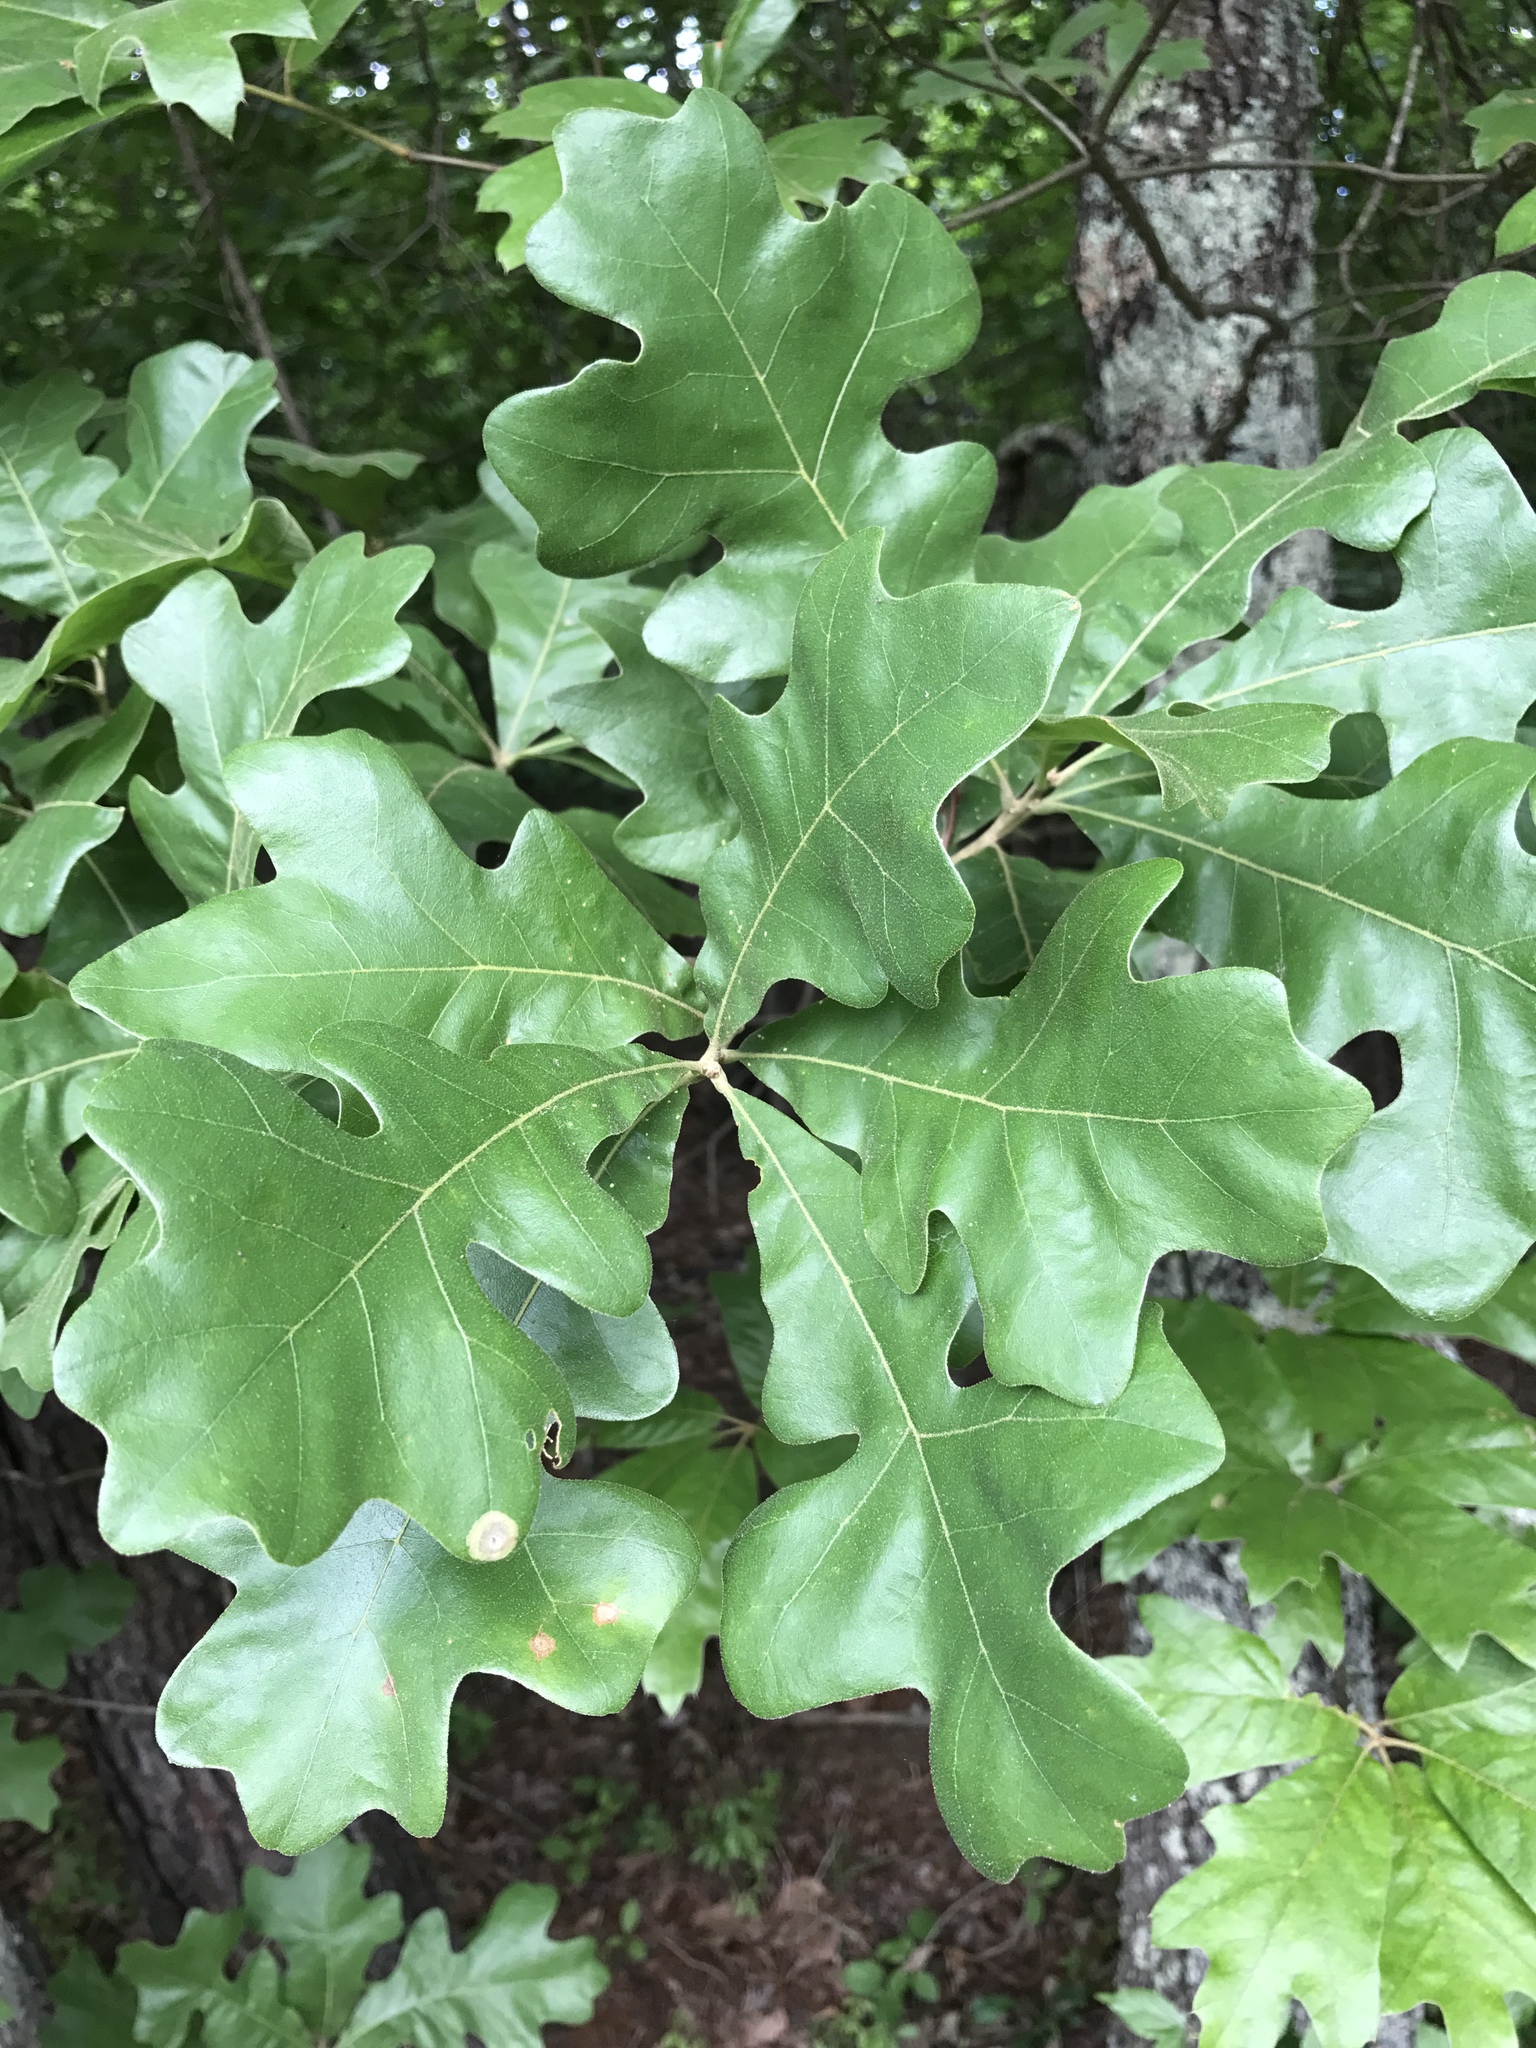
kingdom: Plantae
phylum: Tracheophyta
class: Magnoliopsida
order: Fagales
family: Fagaceae
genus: Quercus
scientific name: Quercus stellata
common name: Post oak
